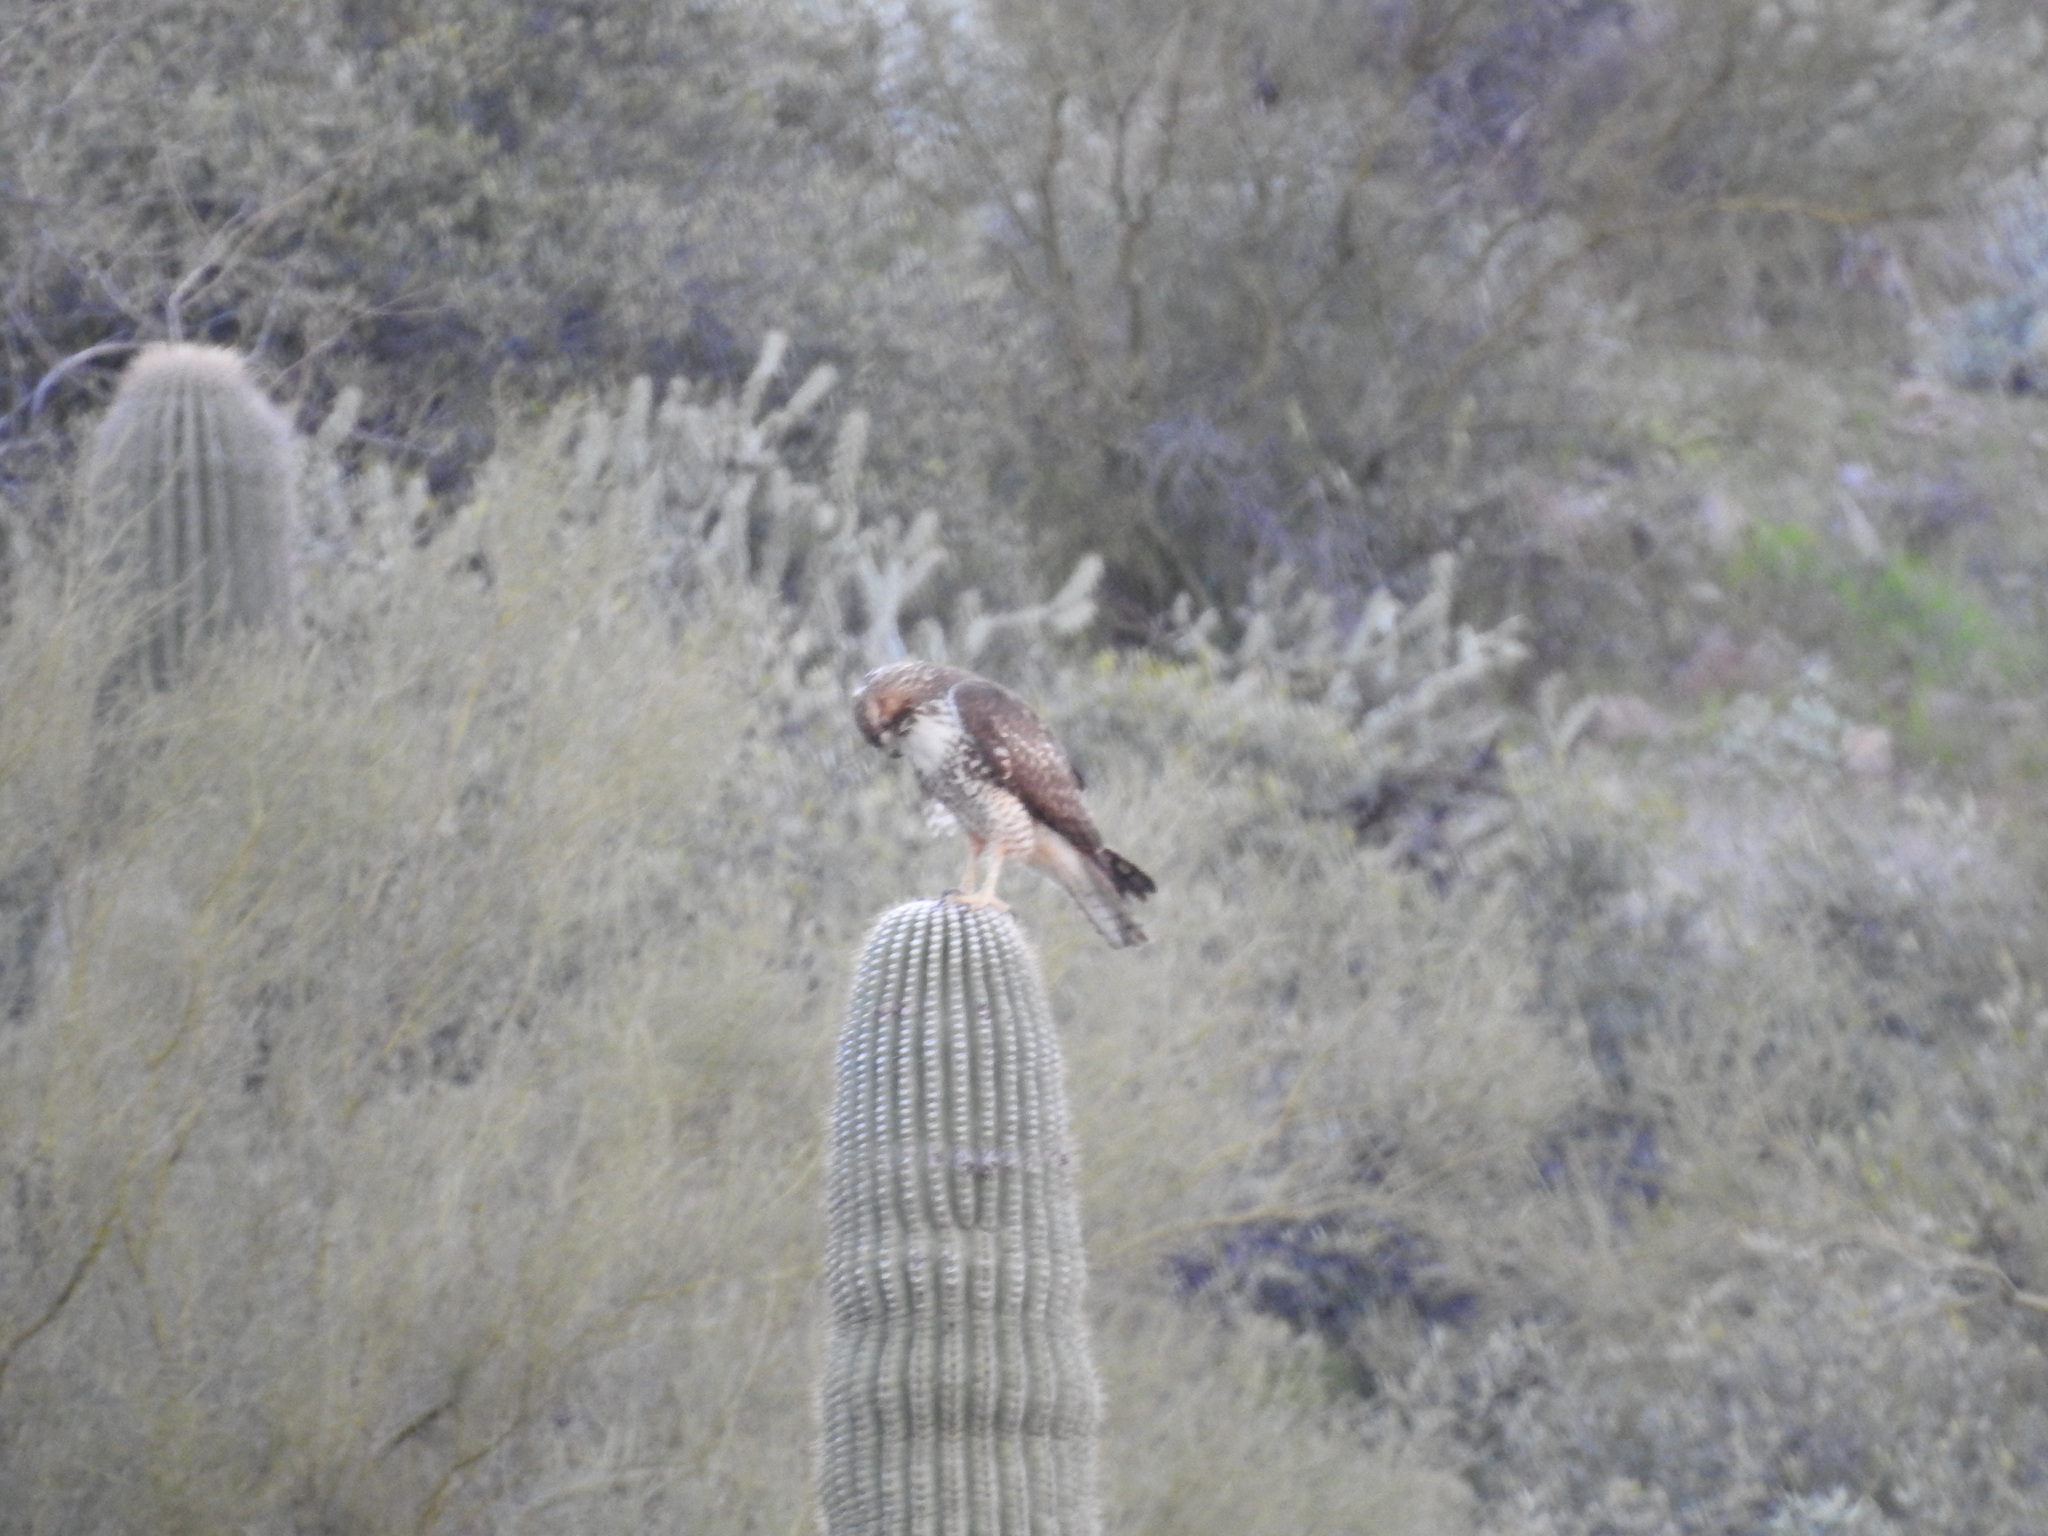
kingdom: Animalia
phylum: Chordata
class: Aves
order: Accipitriformes
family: Accipitridae
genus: Buteo
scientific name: Buteo jamaicensis
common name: Red-tailed hawk
